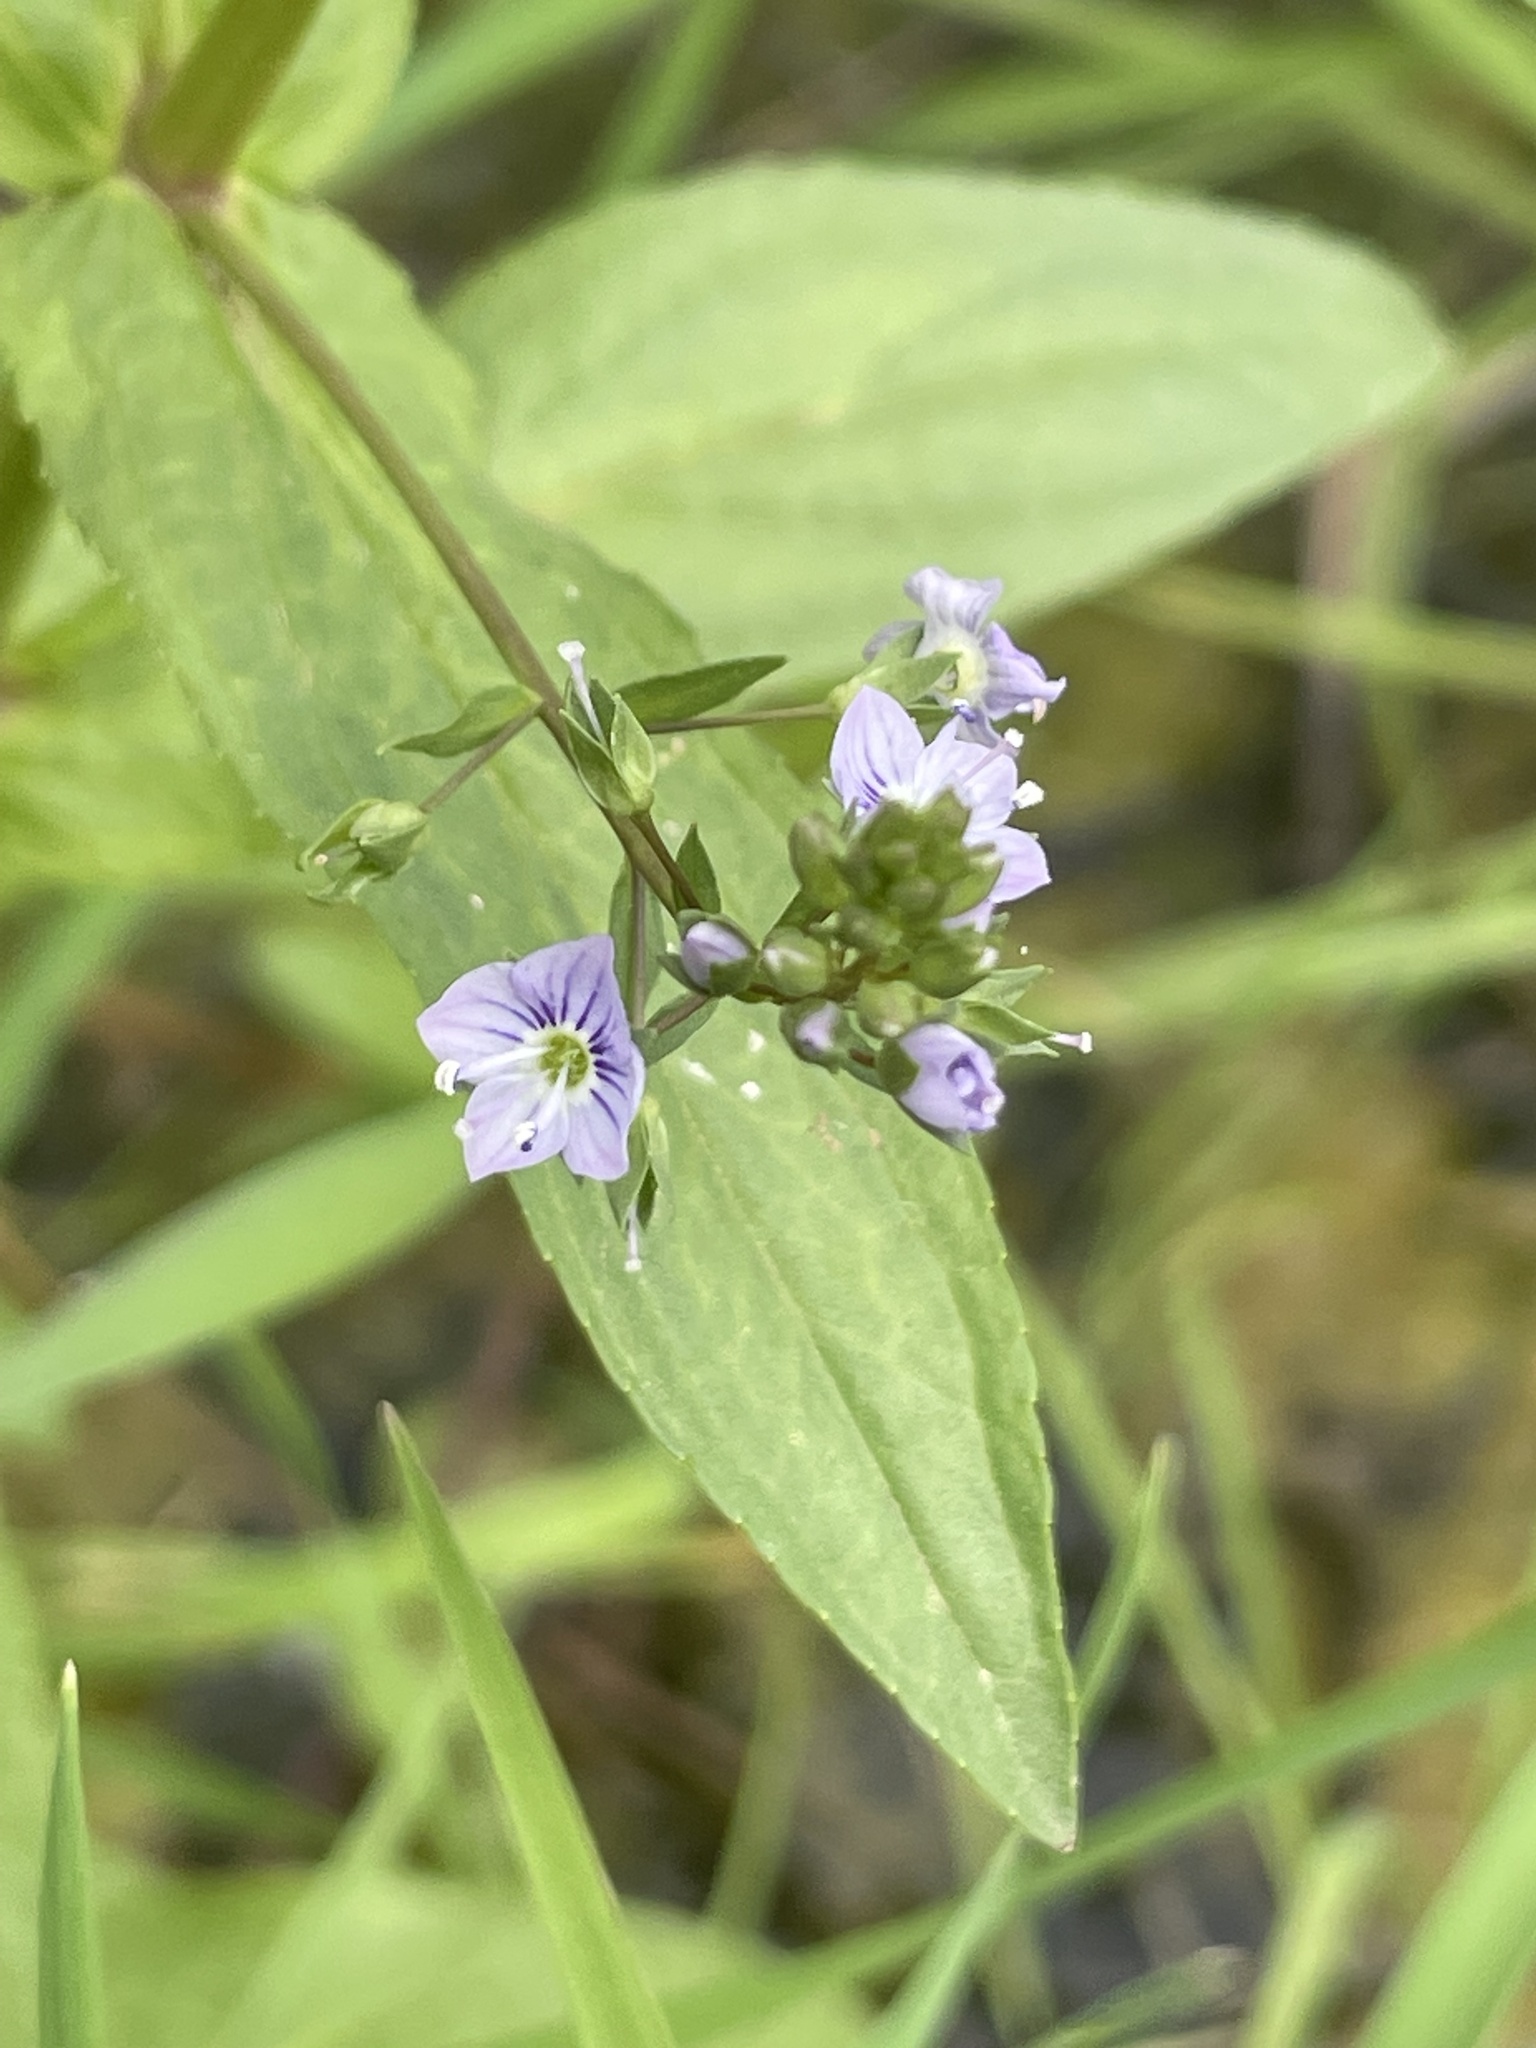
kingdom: Plantae
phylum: Tracheophyta
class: Magnoliopsida
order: Lamiales
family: Plantaginaceae
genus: Veronica
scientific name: Veronica anagallis-aquatica
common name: Water speedwell
